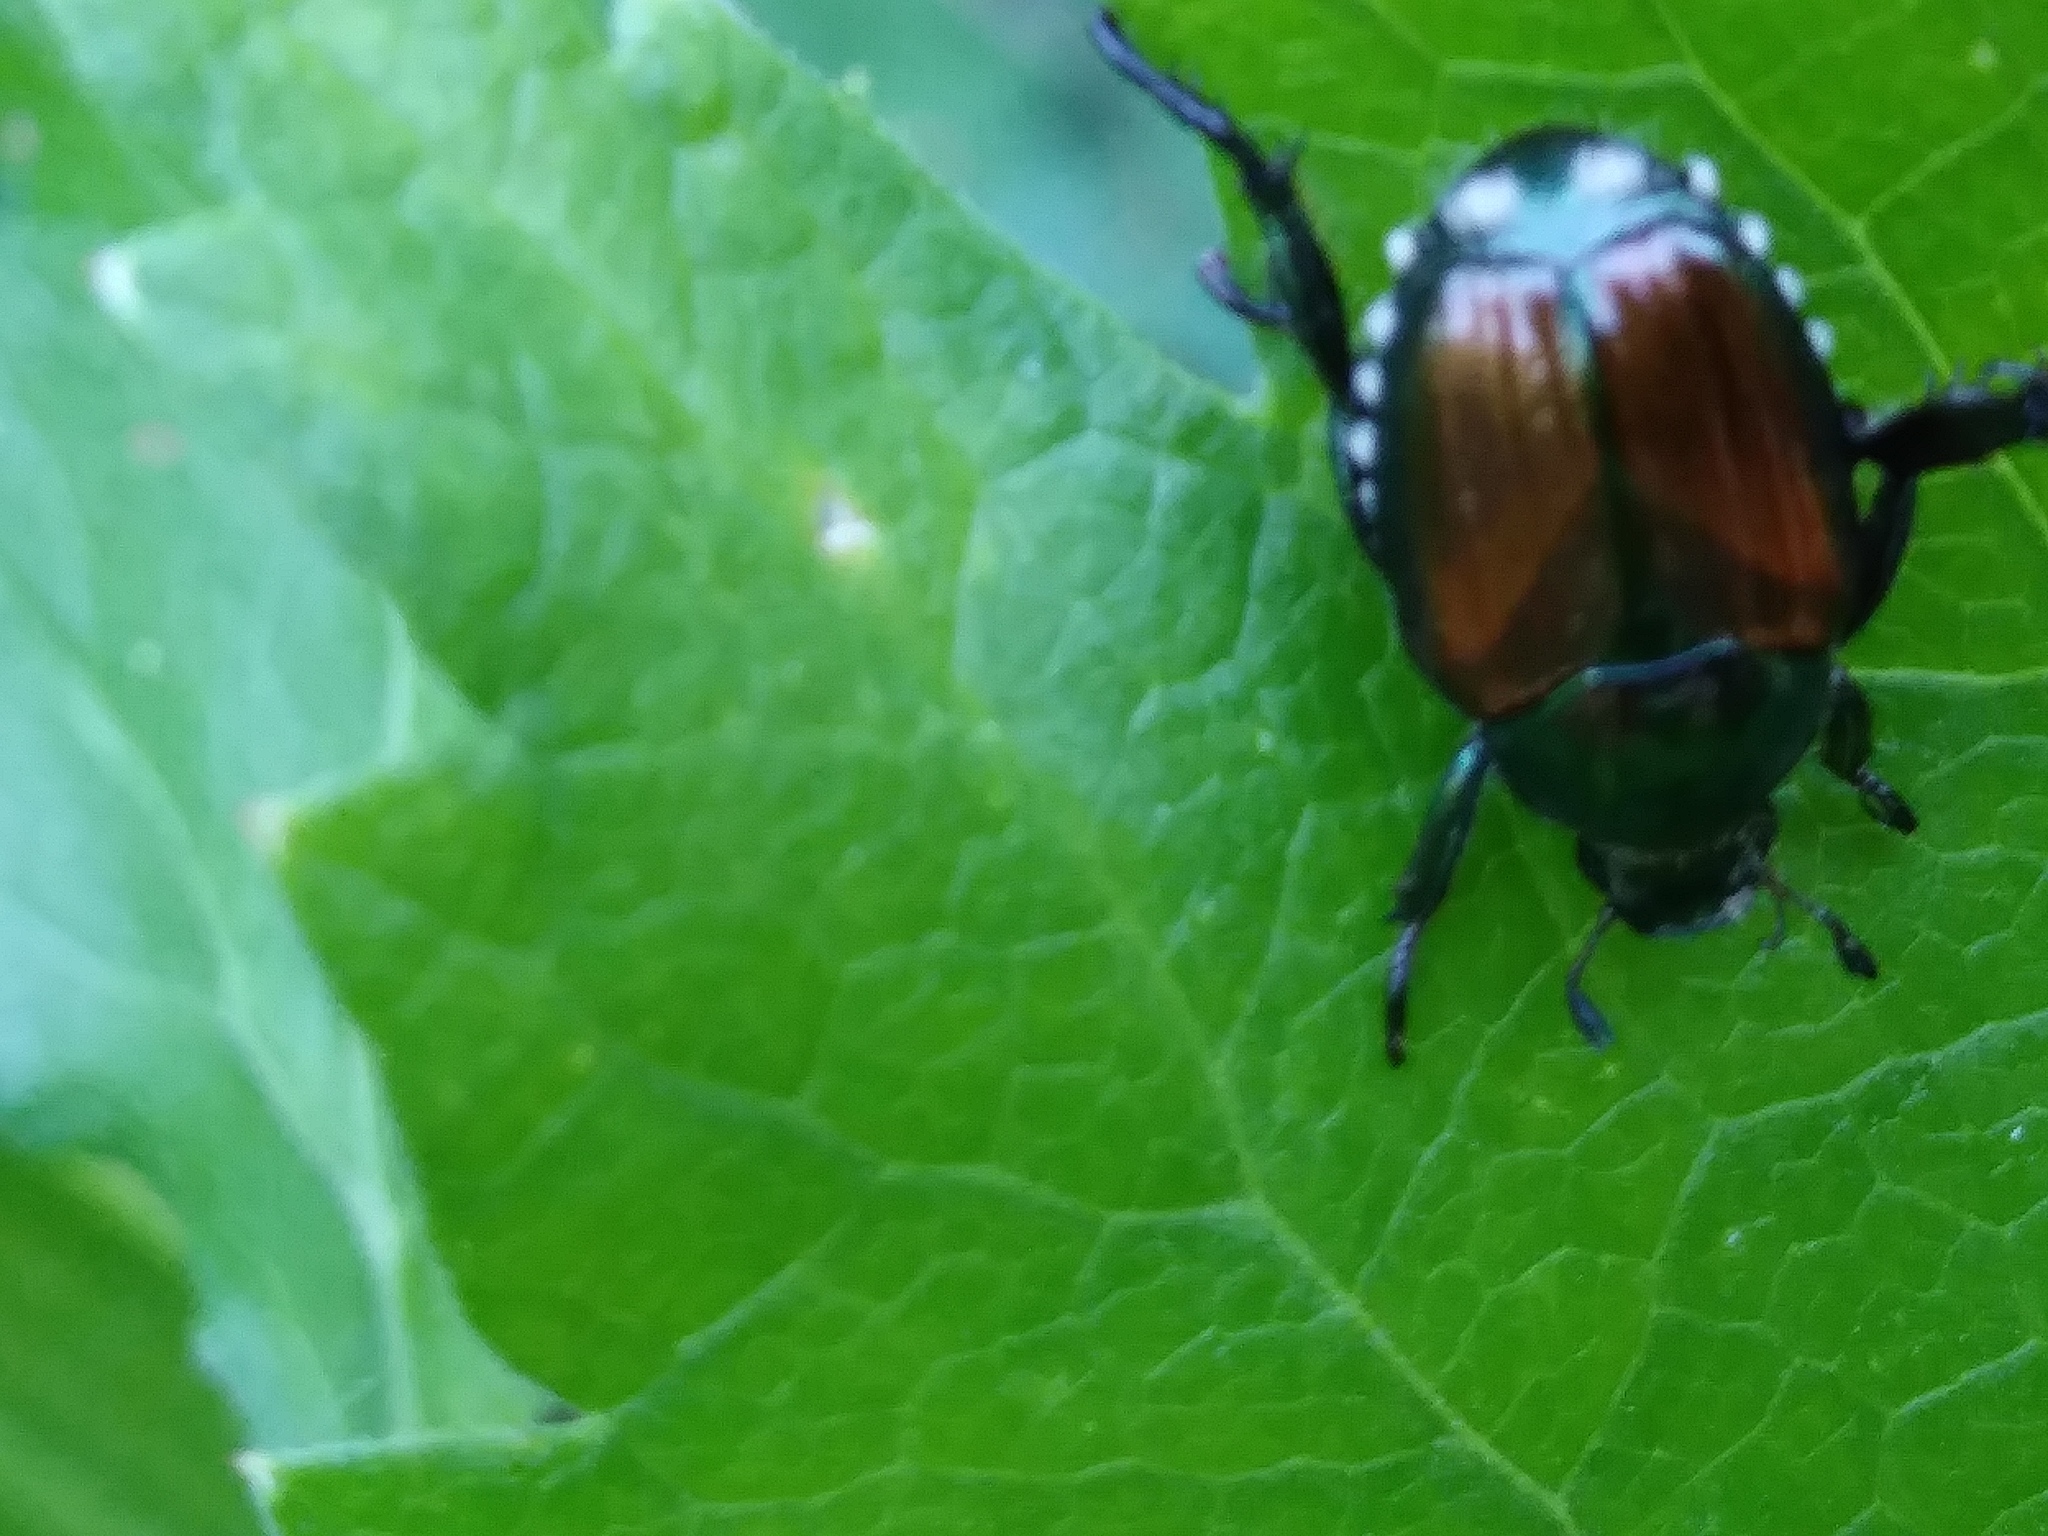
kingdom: Animalia
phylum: Arthropoda
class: Insecta
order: Coleoptera
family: Scarabaeidae
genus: Popillia
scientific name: Popillia japonica
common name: Japanese beetle
